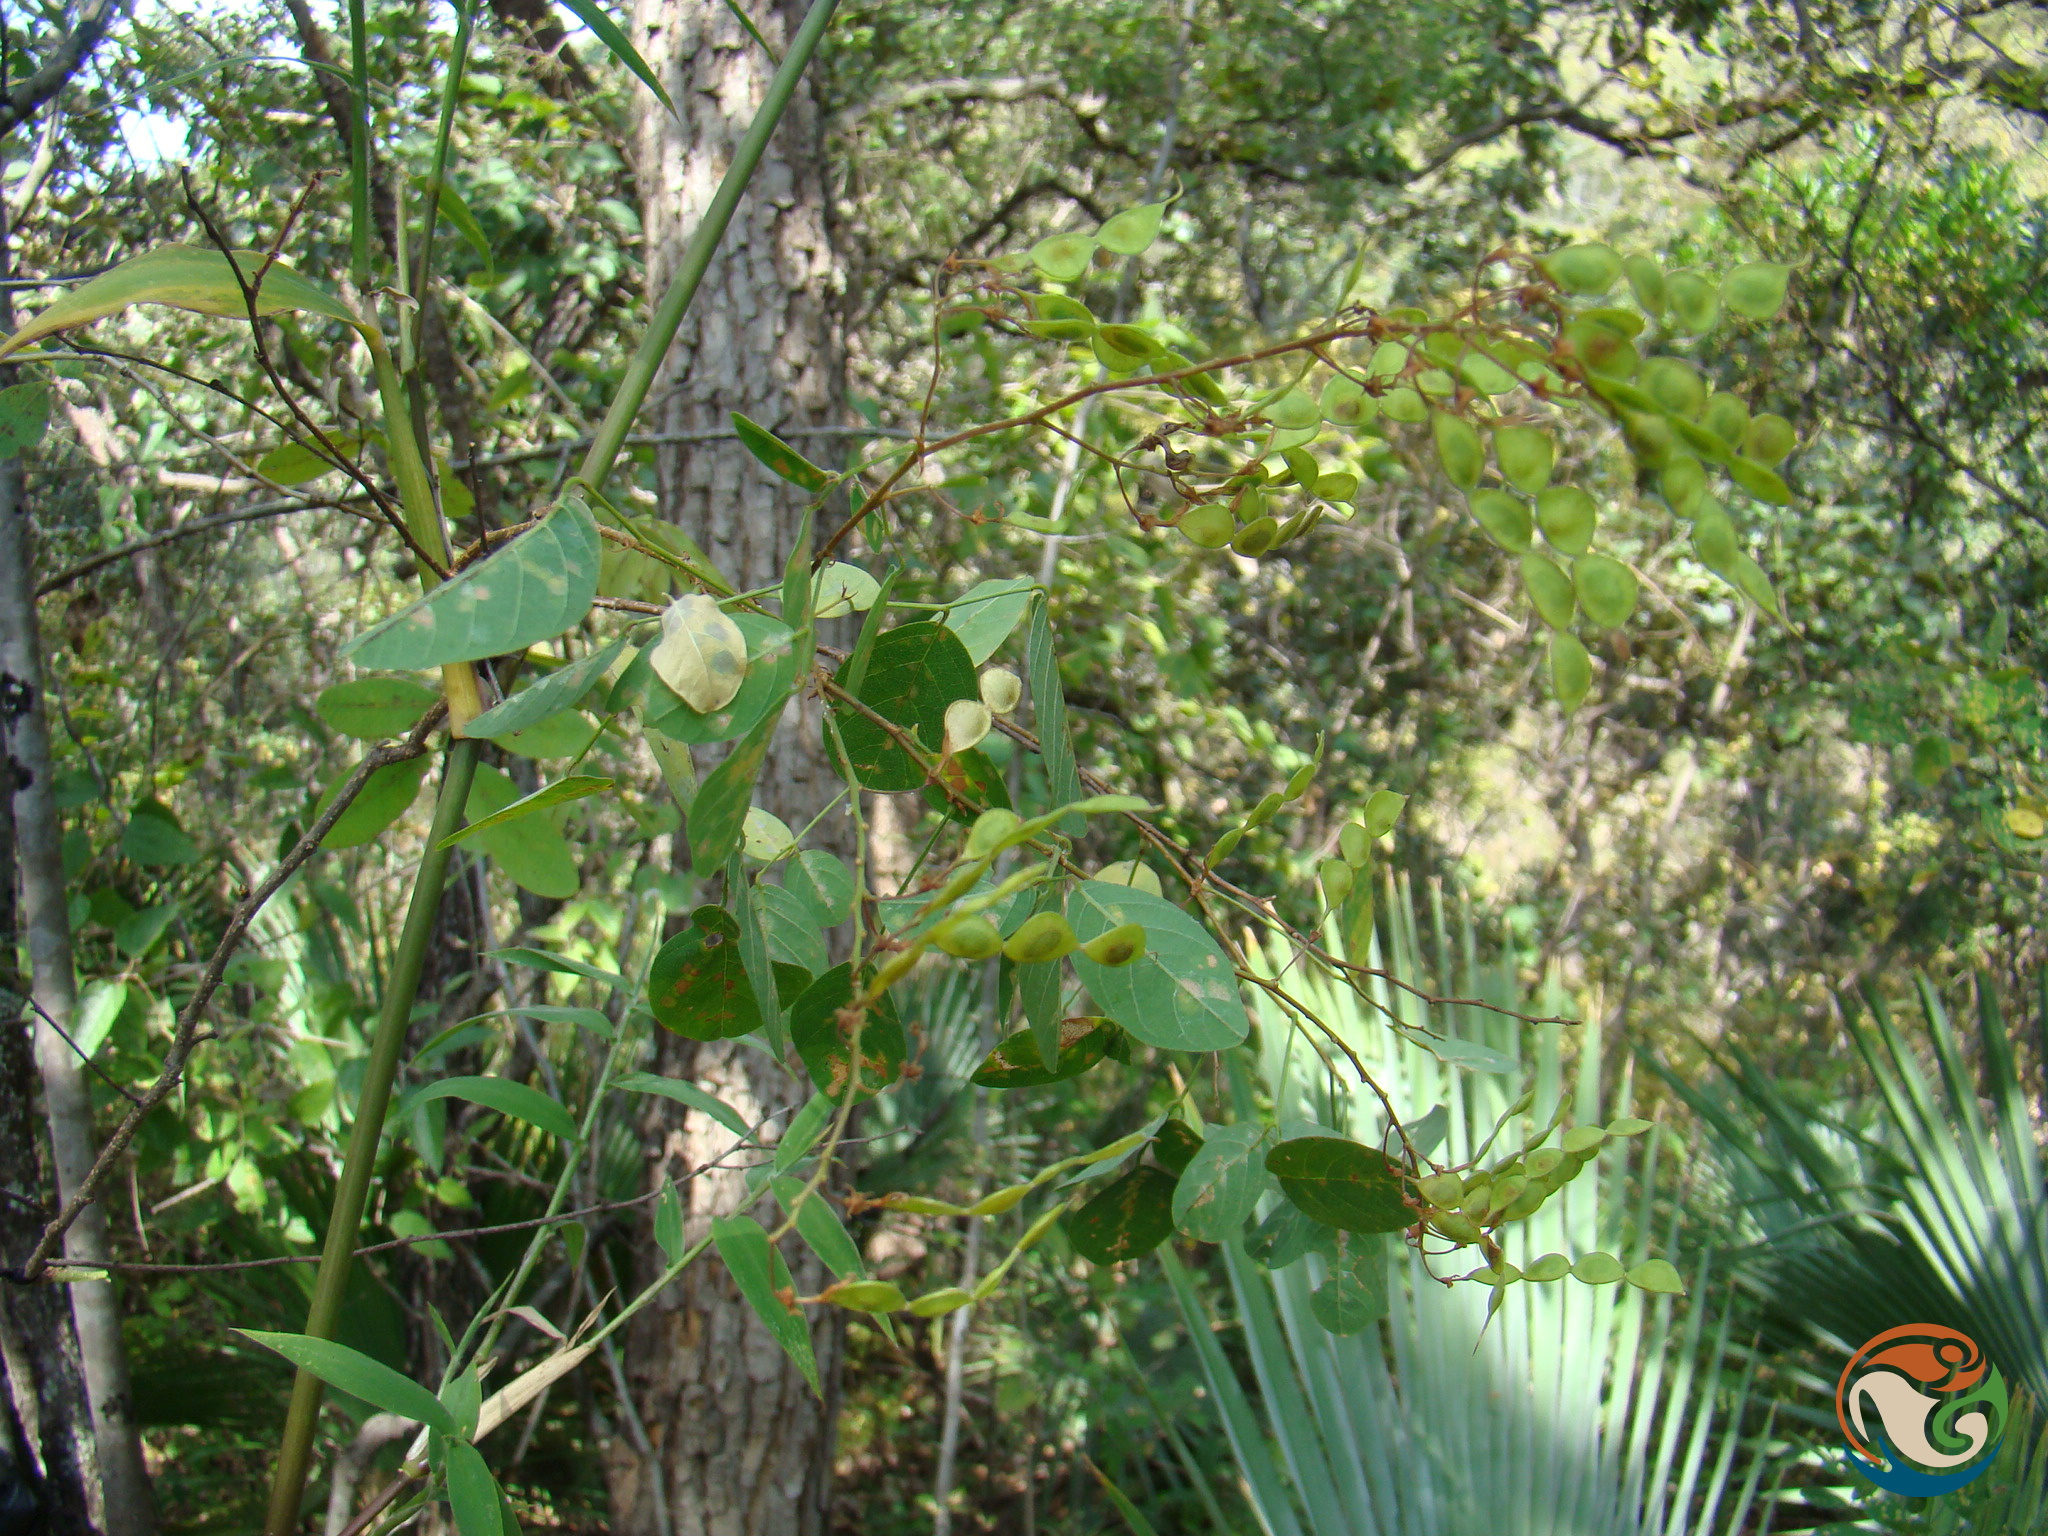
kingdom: Plantae
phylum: Tracheophyta
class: Magnoliopsida
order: Fabales
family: Fabaceae
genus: Desmodium
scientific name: Desmodium orbiculare
